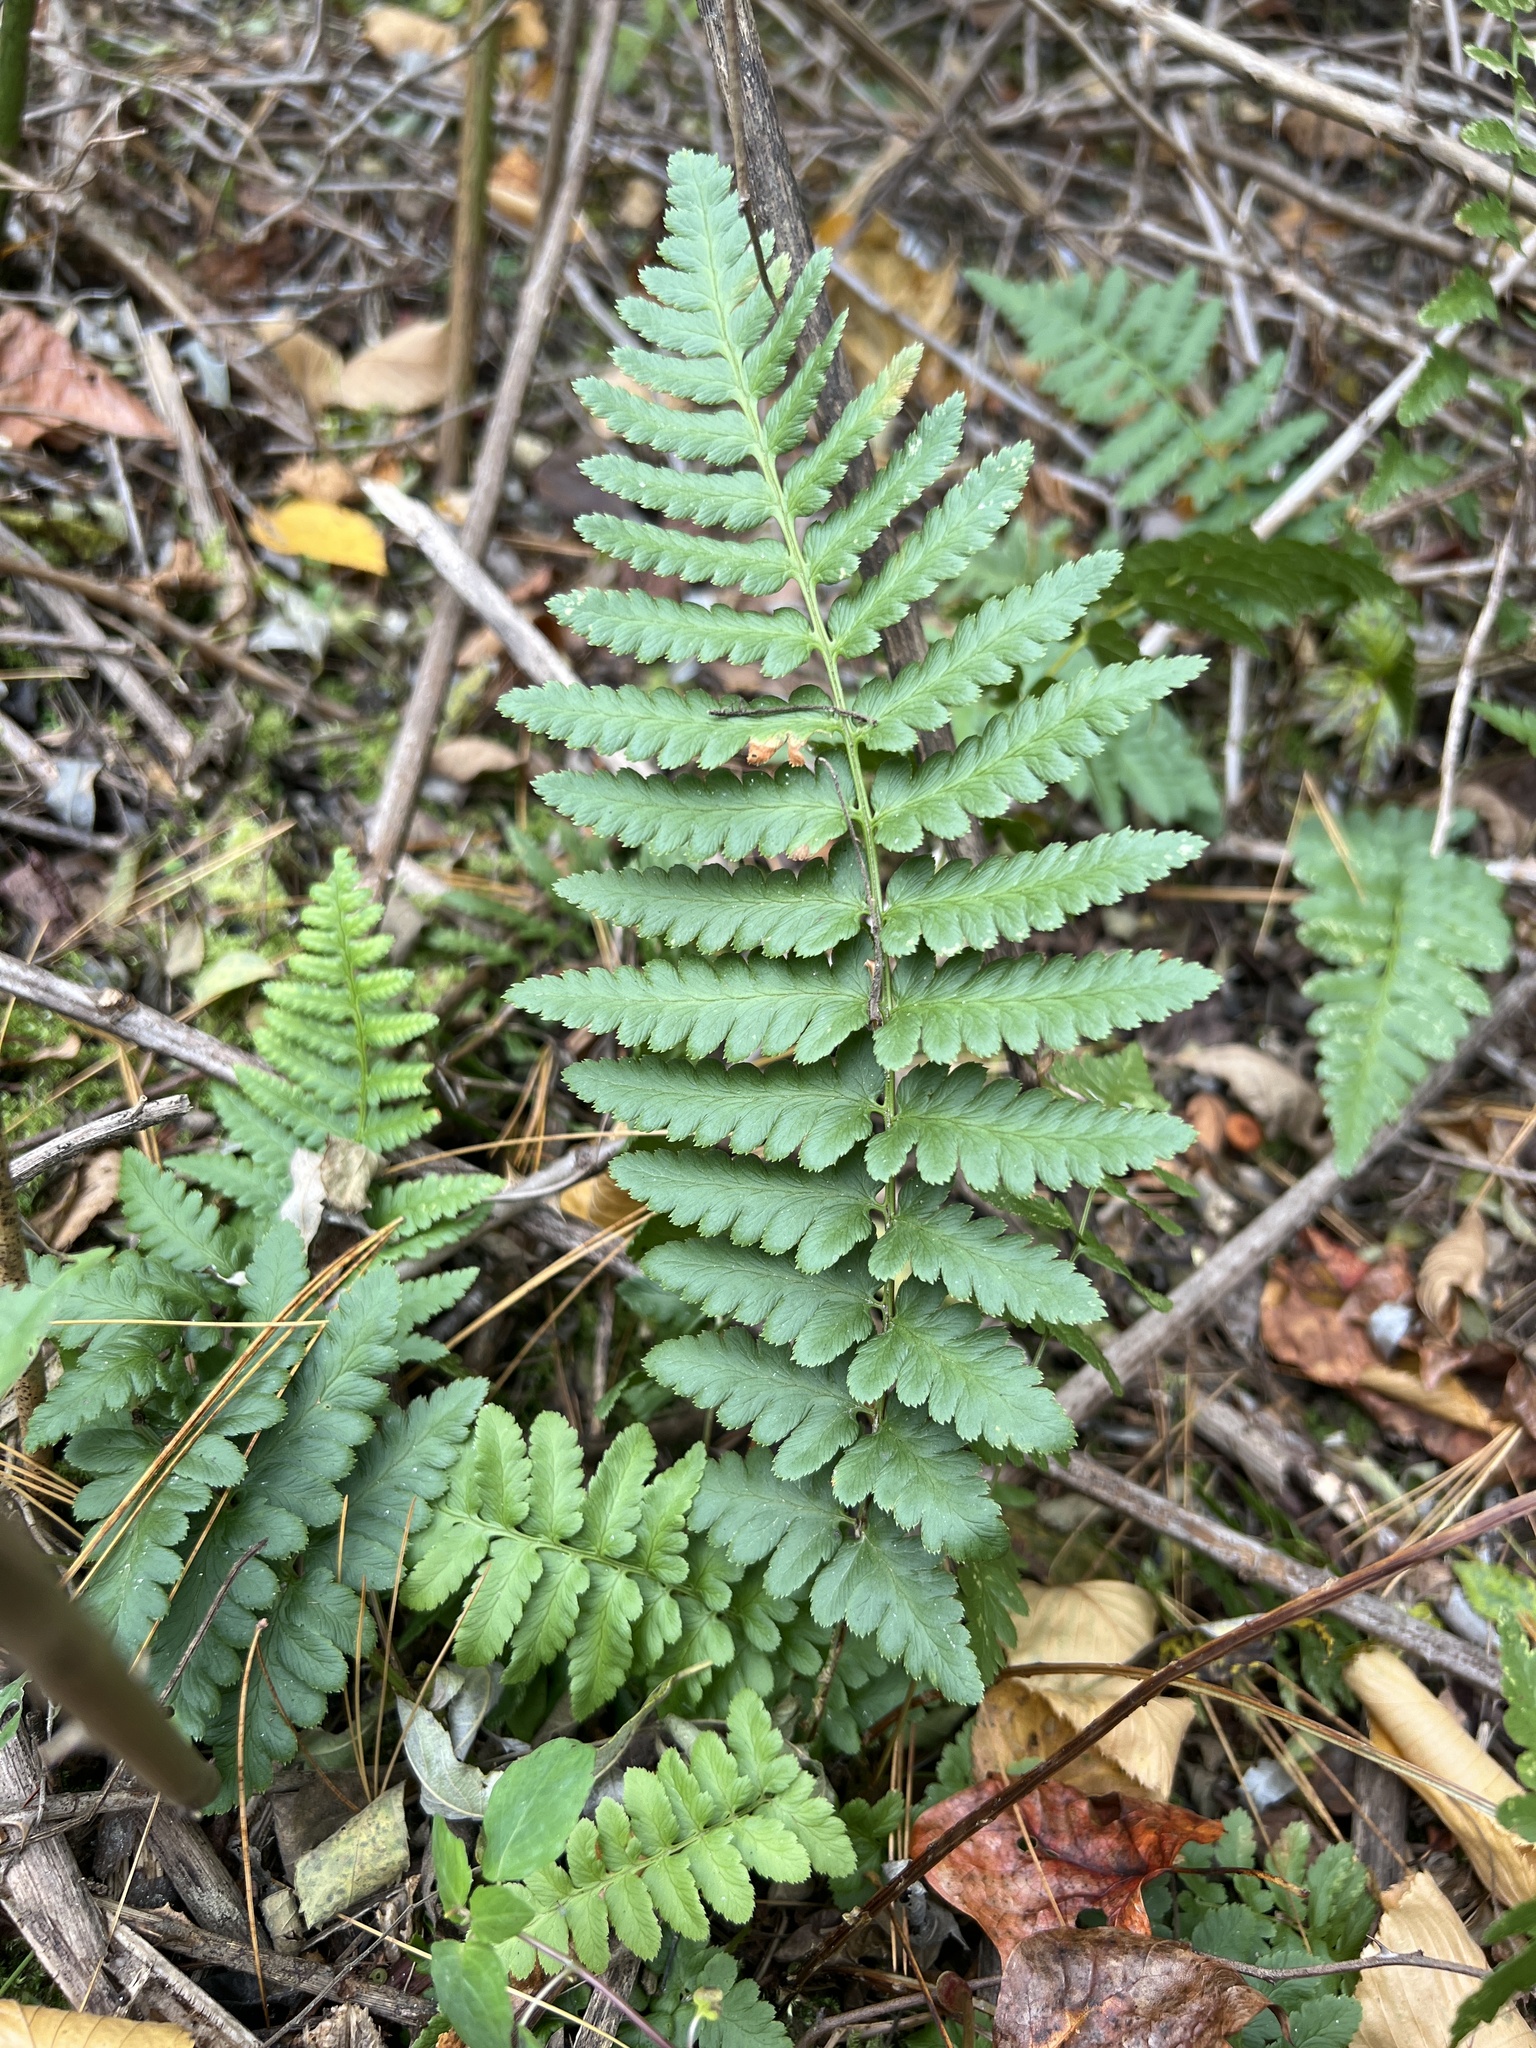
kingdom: Plantae
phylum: Tracheophyta
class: Polypodiopsida
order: Polypodiales
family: Dryopteridaceae
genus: Dryopteris
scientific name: Dryopteris cristata
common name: Crested wood fern
